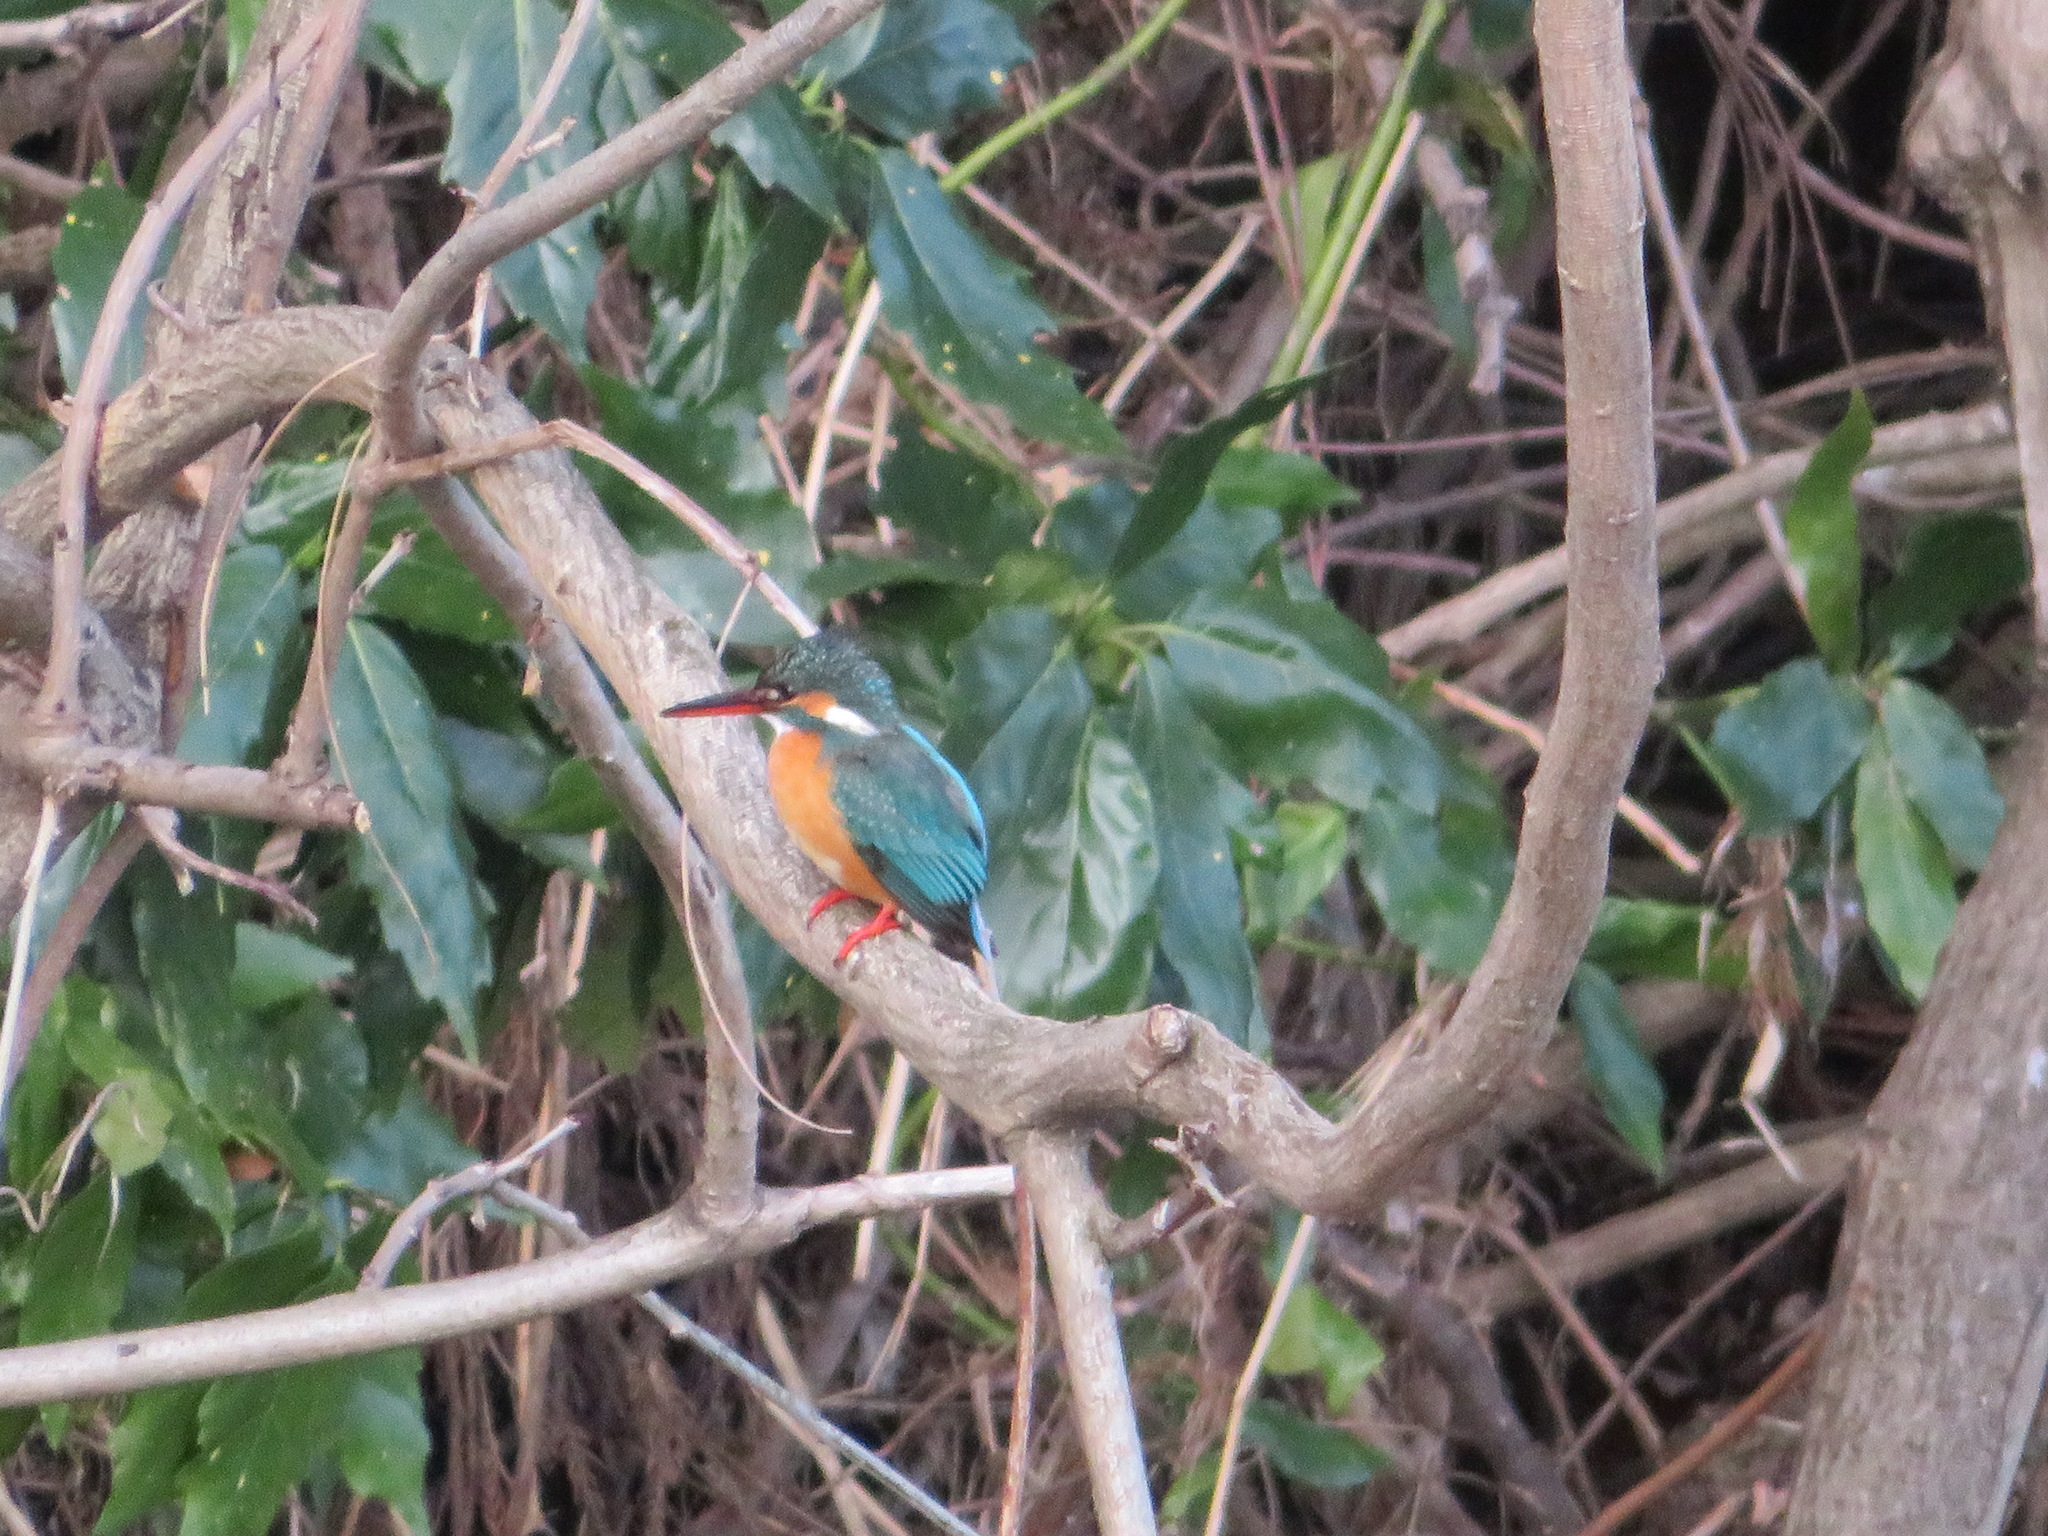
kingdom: Animalia
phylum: Chordata
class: Aves
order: Coraciiformes
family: Alcedinidae
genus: Alcedo
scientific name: Alcedo atthis
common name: Common kingfisher
